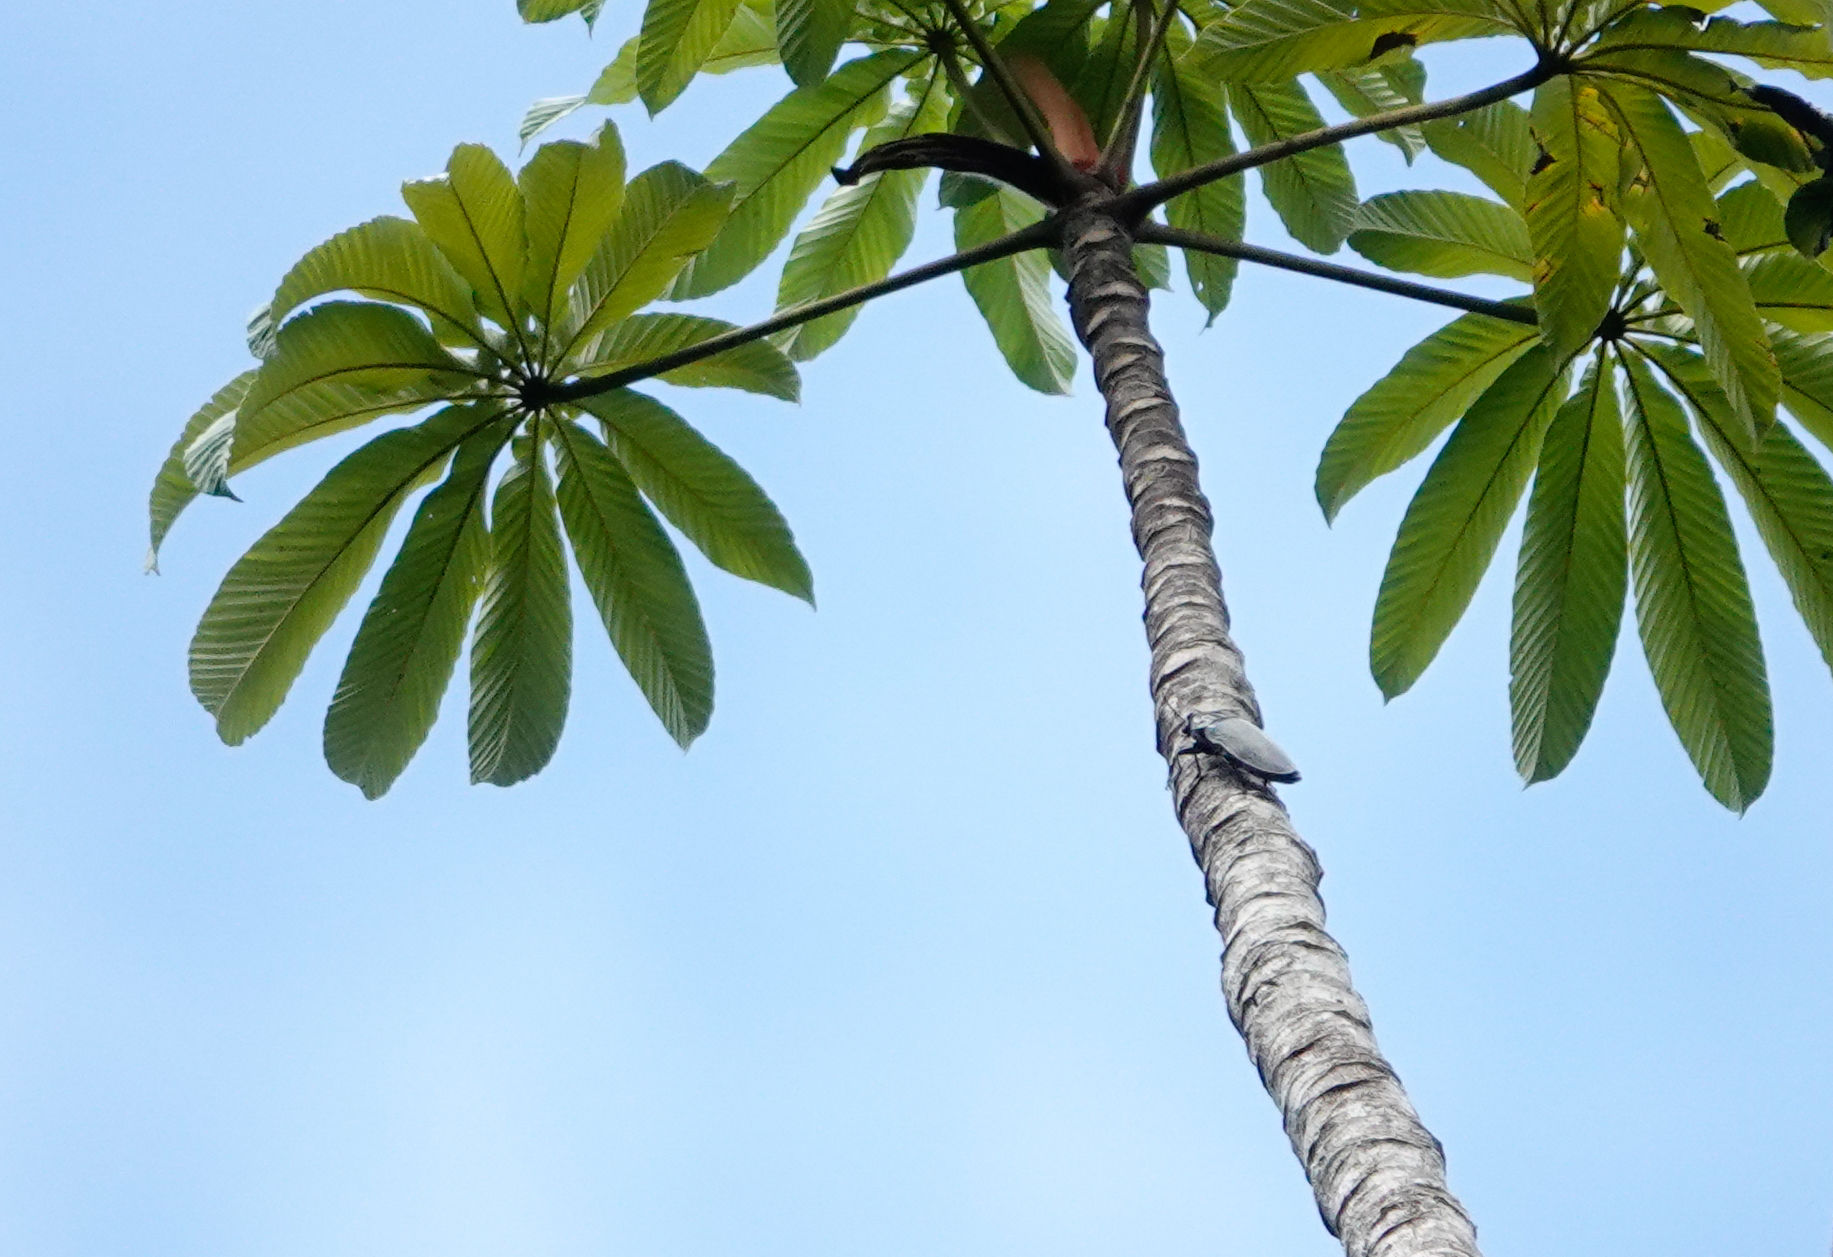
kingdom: Animalia
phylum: Arthropoda
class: Insecta
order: Coleoptera
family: Buprestidae
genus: Euchroma
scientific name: Euchroma giganteum
